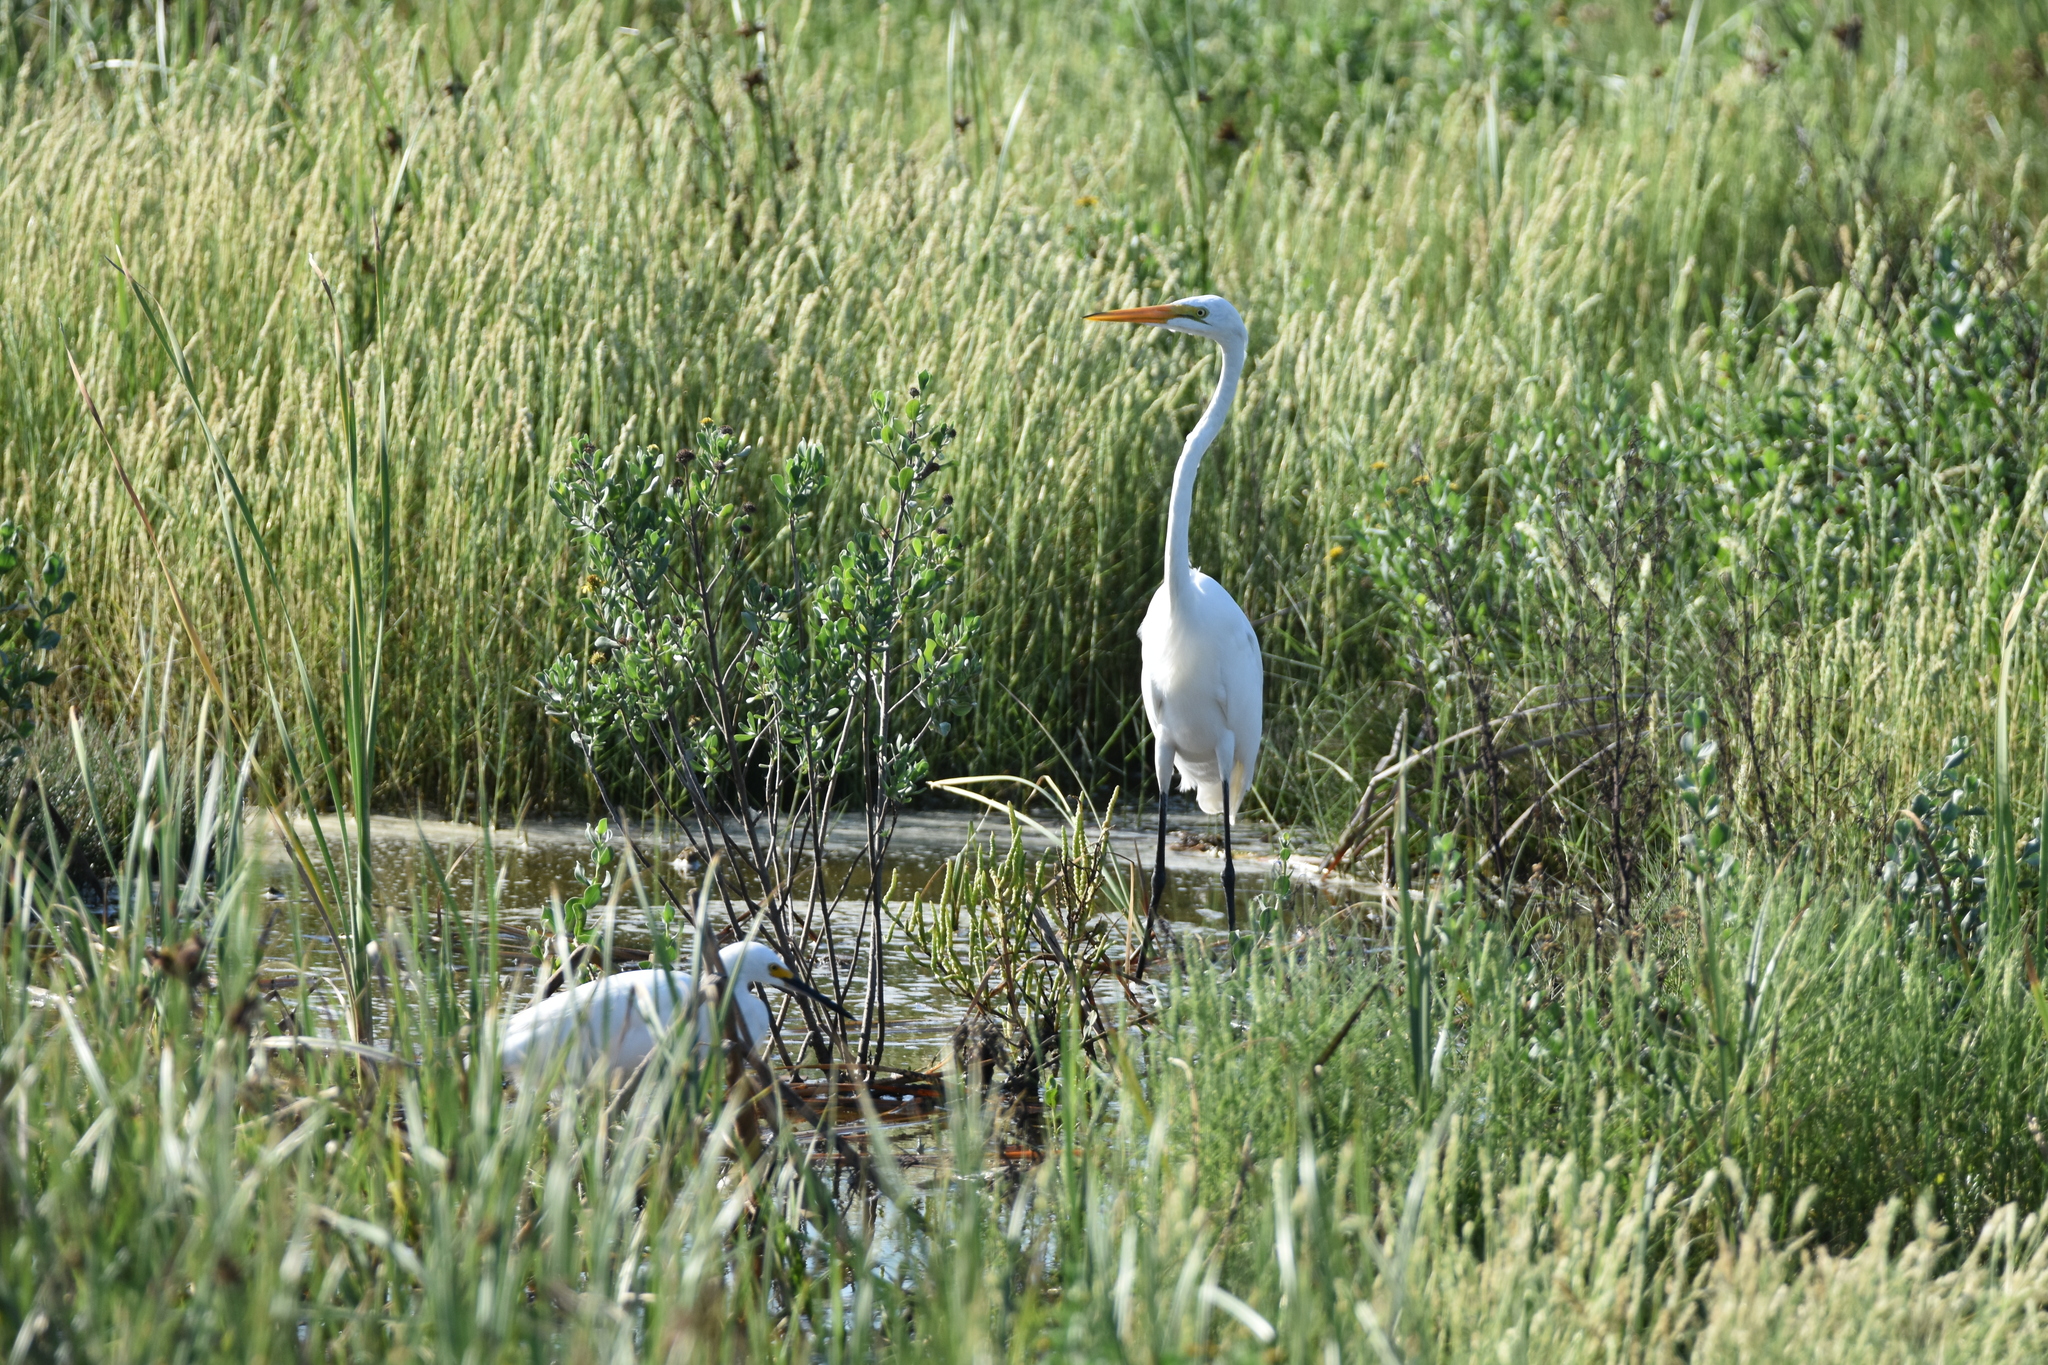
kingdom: Animalia
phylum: Chordata
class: Aves
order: Pelecaniformes
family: Ardeidae
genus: Ardea
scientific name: Ardea alba
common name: Great egret
